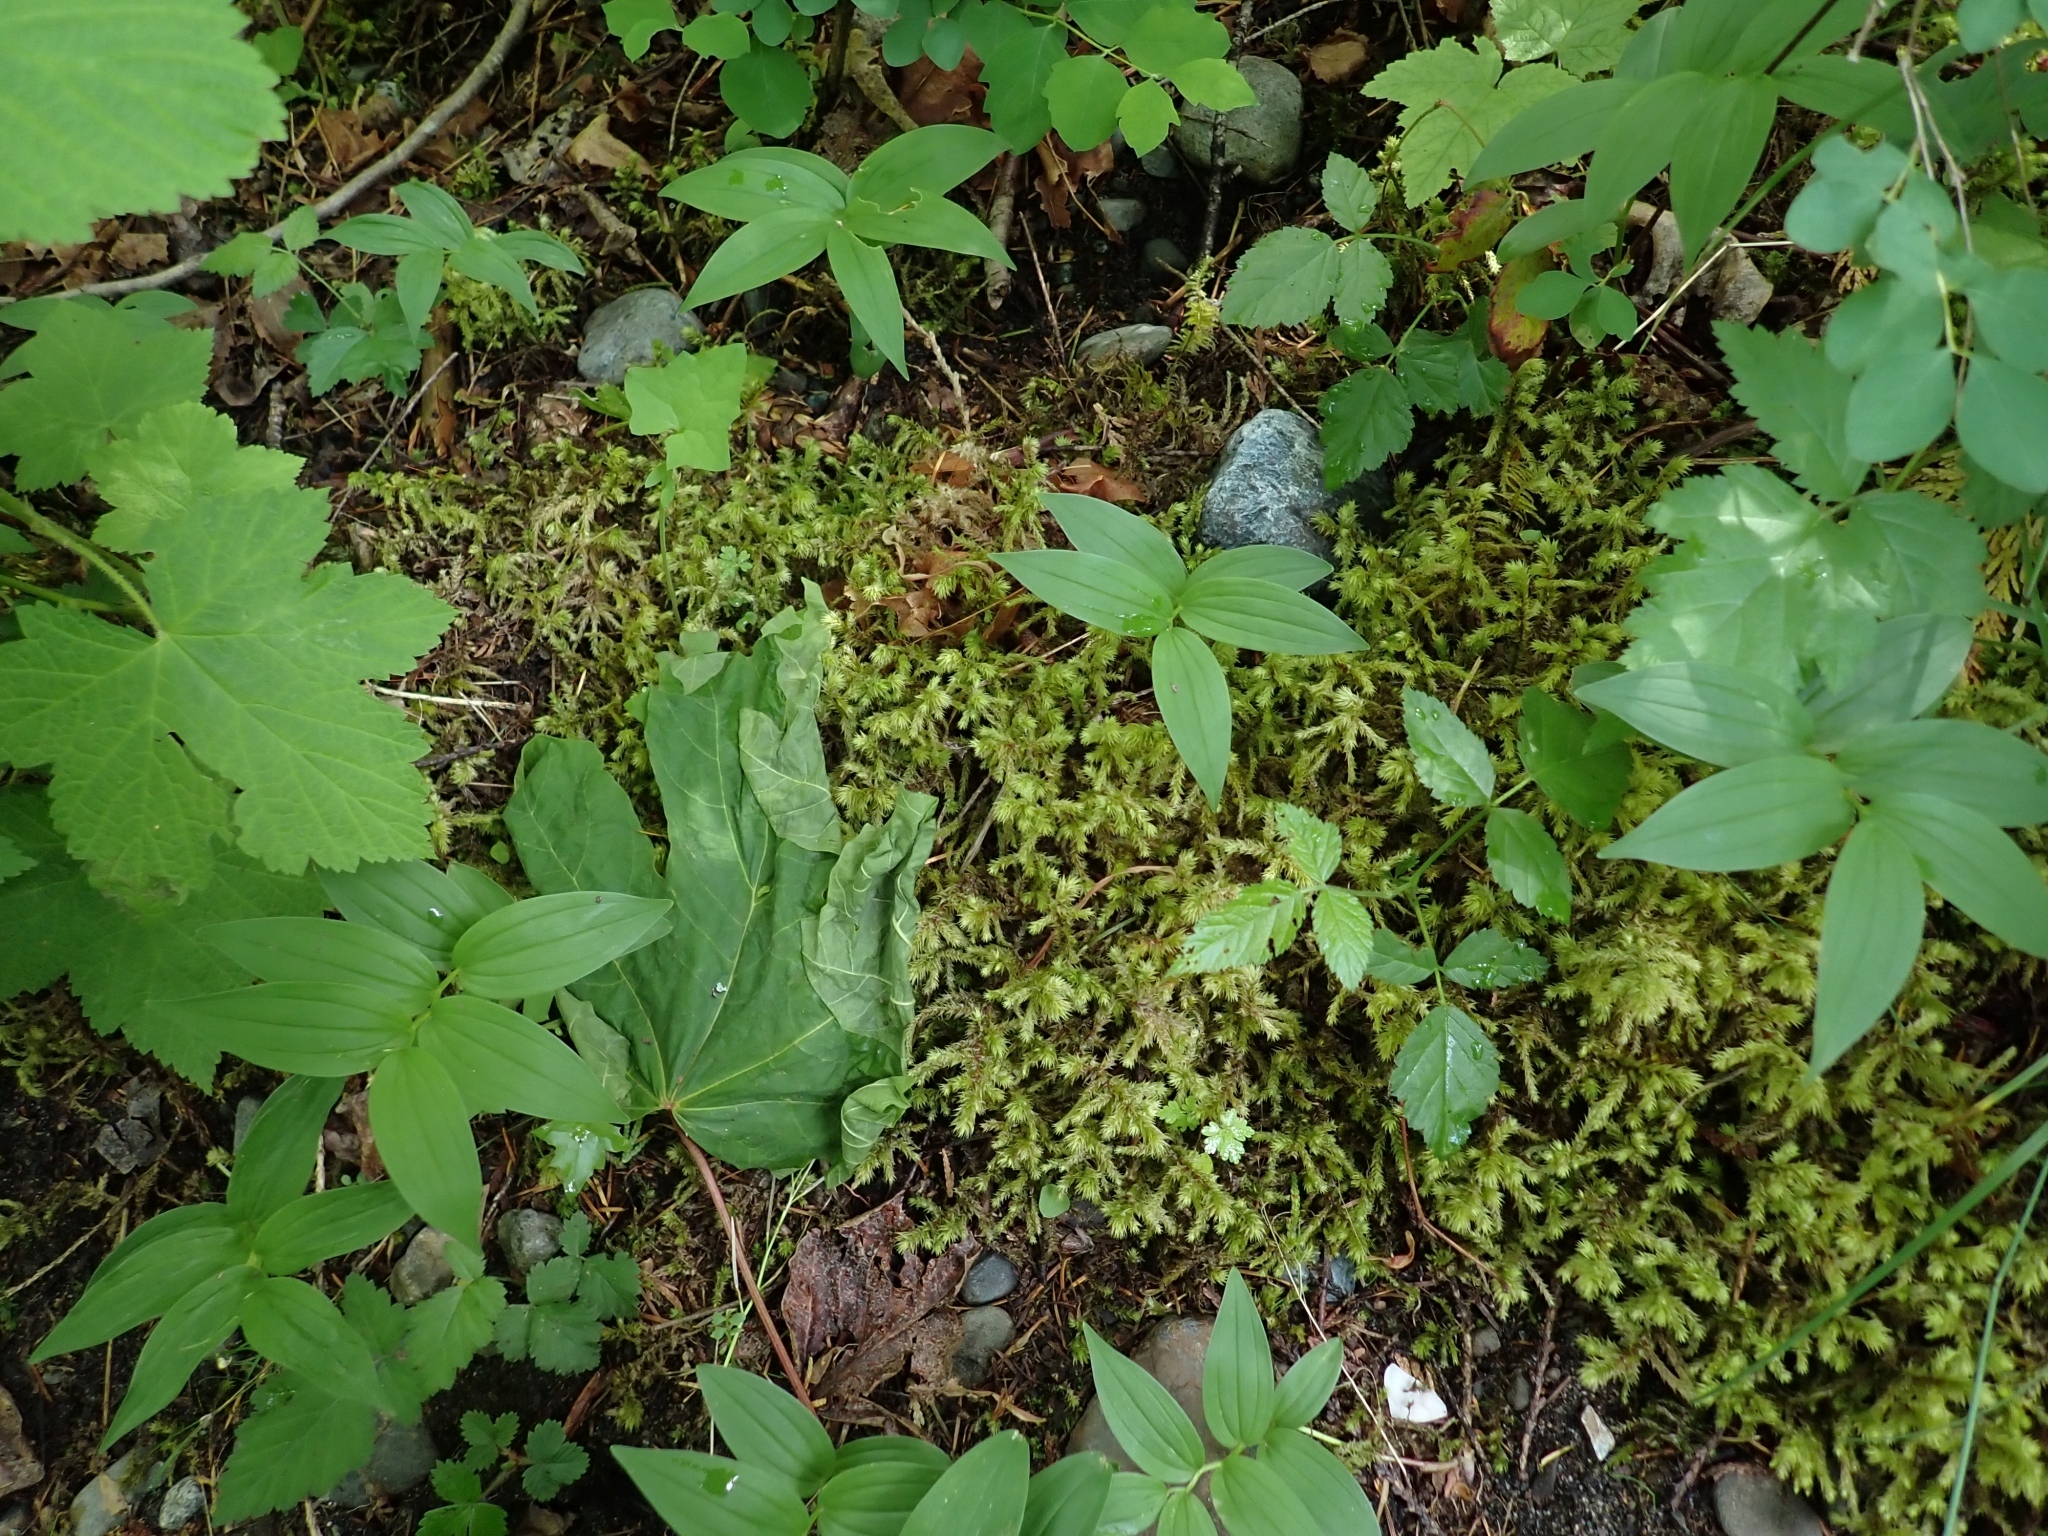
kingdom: Plantae
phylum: Bryophyta
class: Bryopsida
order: Hypnales
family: Hylocomiaceae
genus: Hylocomiadelphus
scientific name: Hylocomiadelphus triquetrus
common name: Rough goose neck moss
